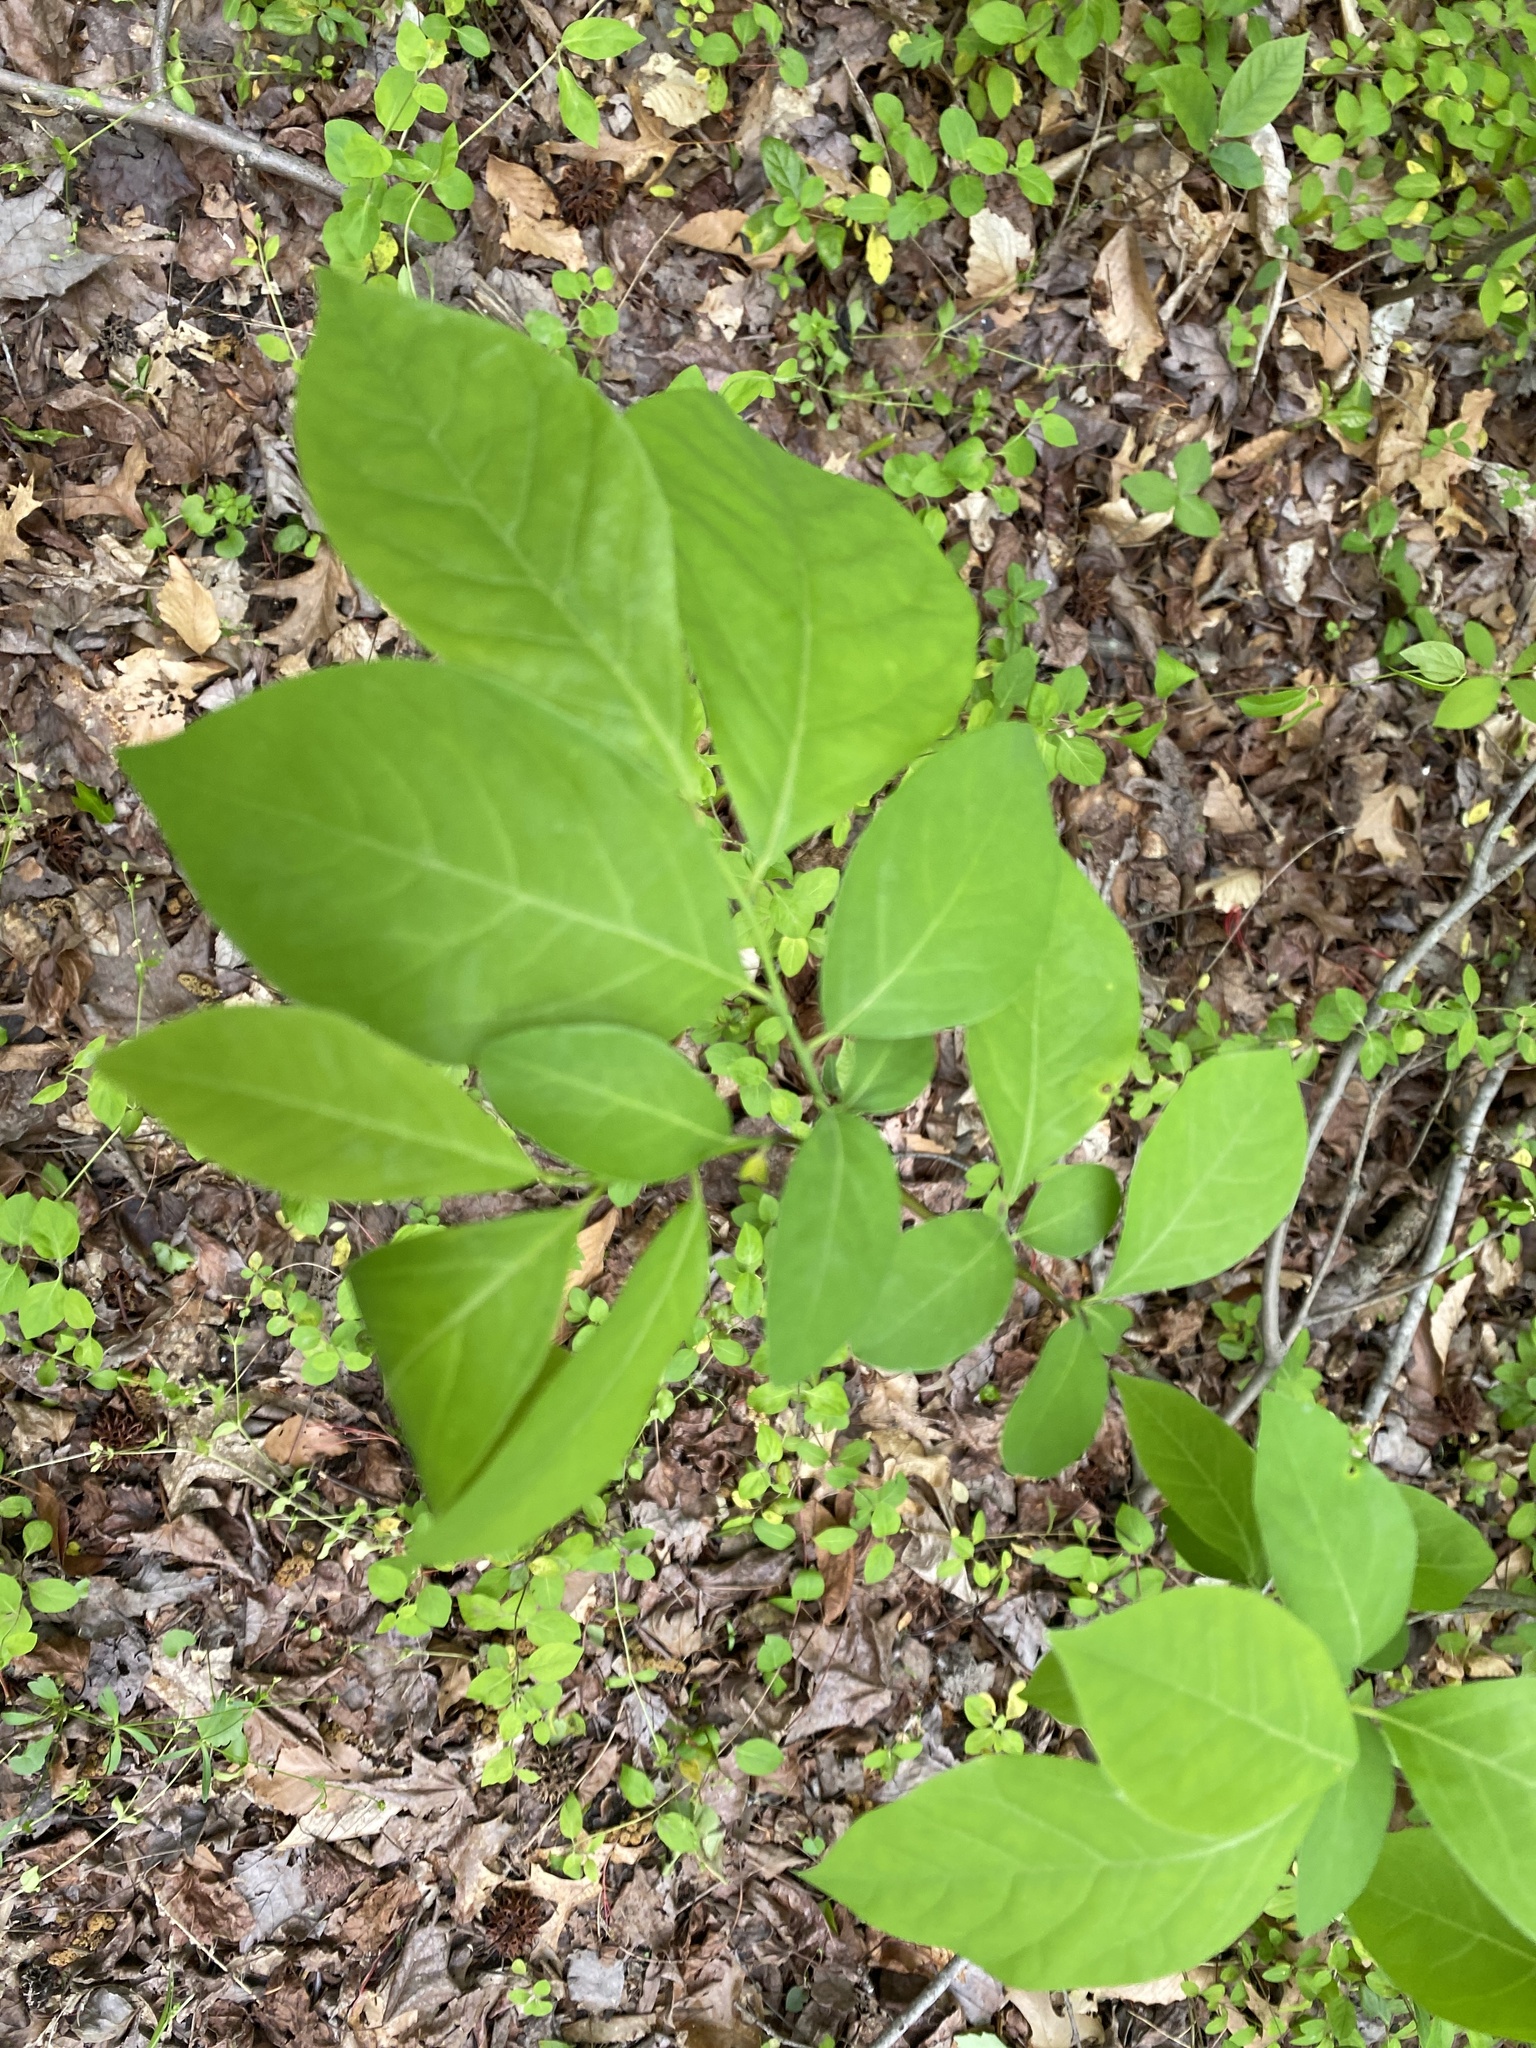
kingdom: Plantae
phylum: Tracheophyta
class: Magnoliopsida
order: Laurales
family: Lauraceae
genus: Lindera
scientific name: Lindera benzoin
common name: Spicebush
